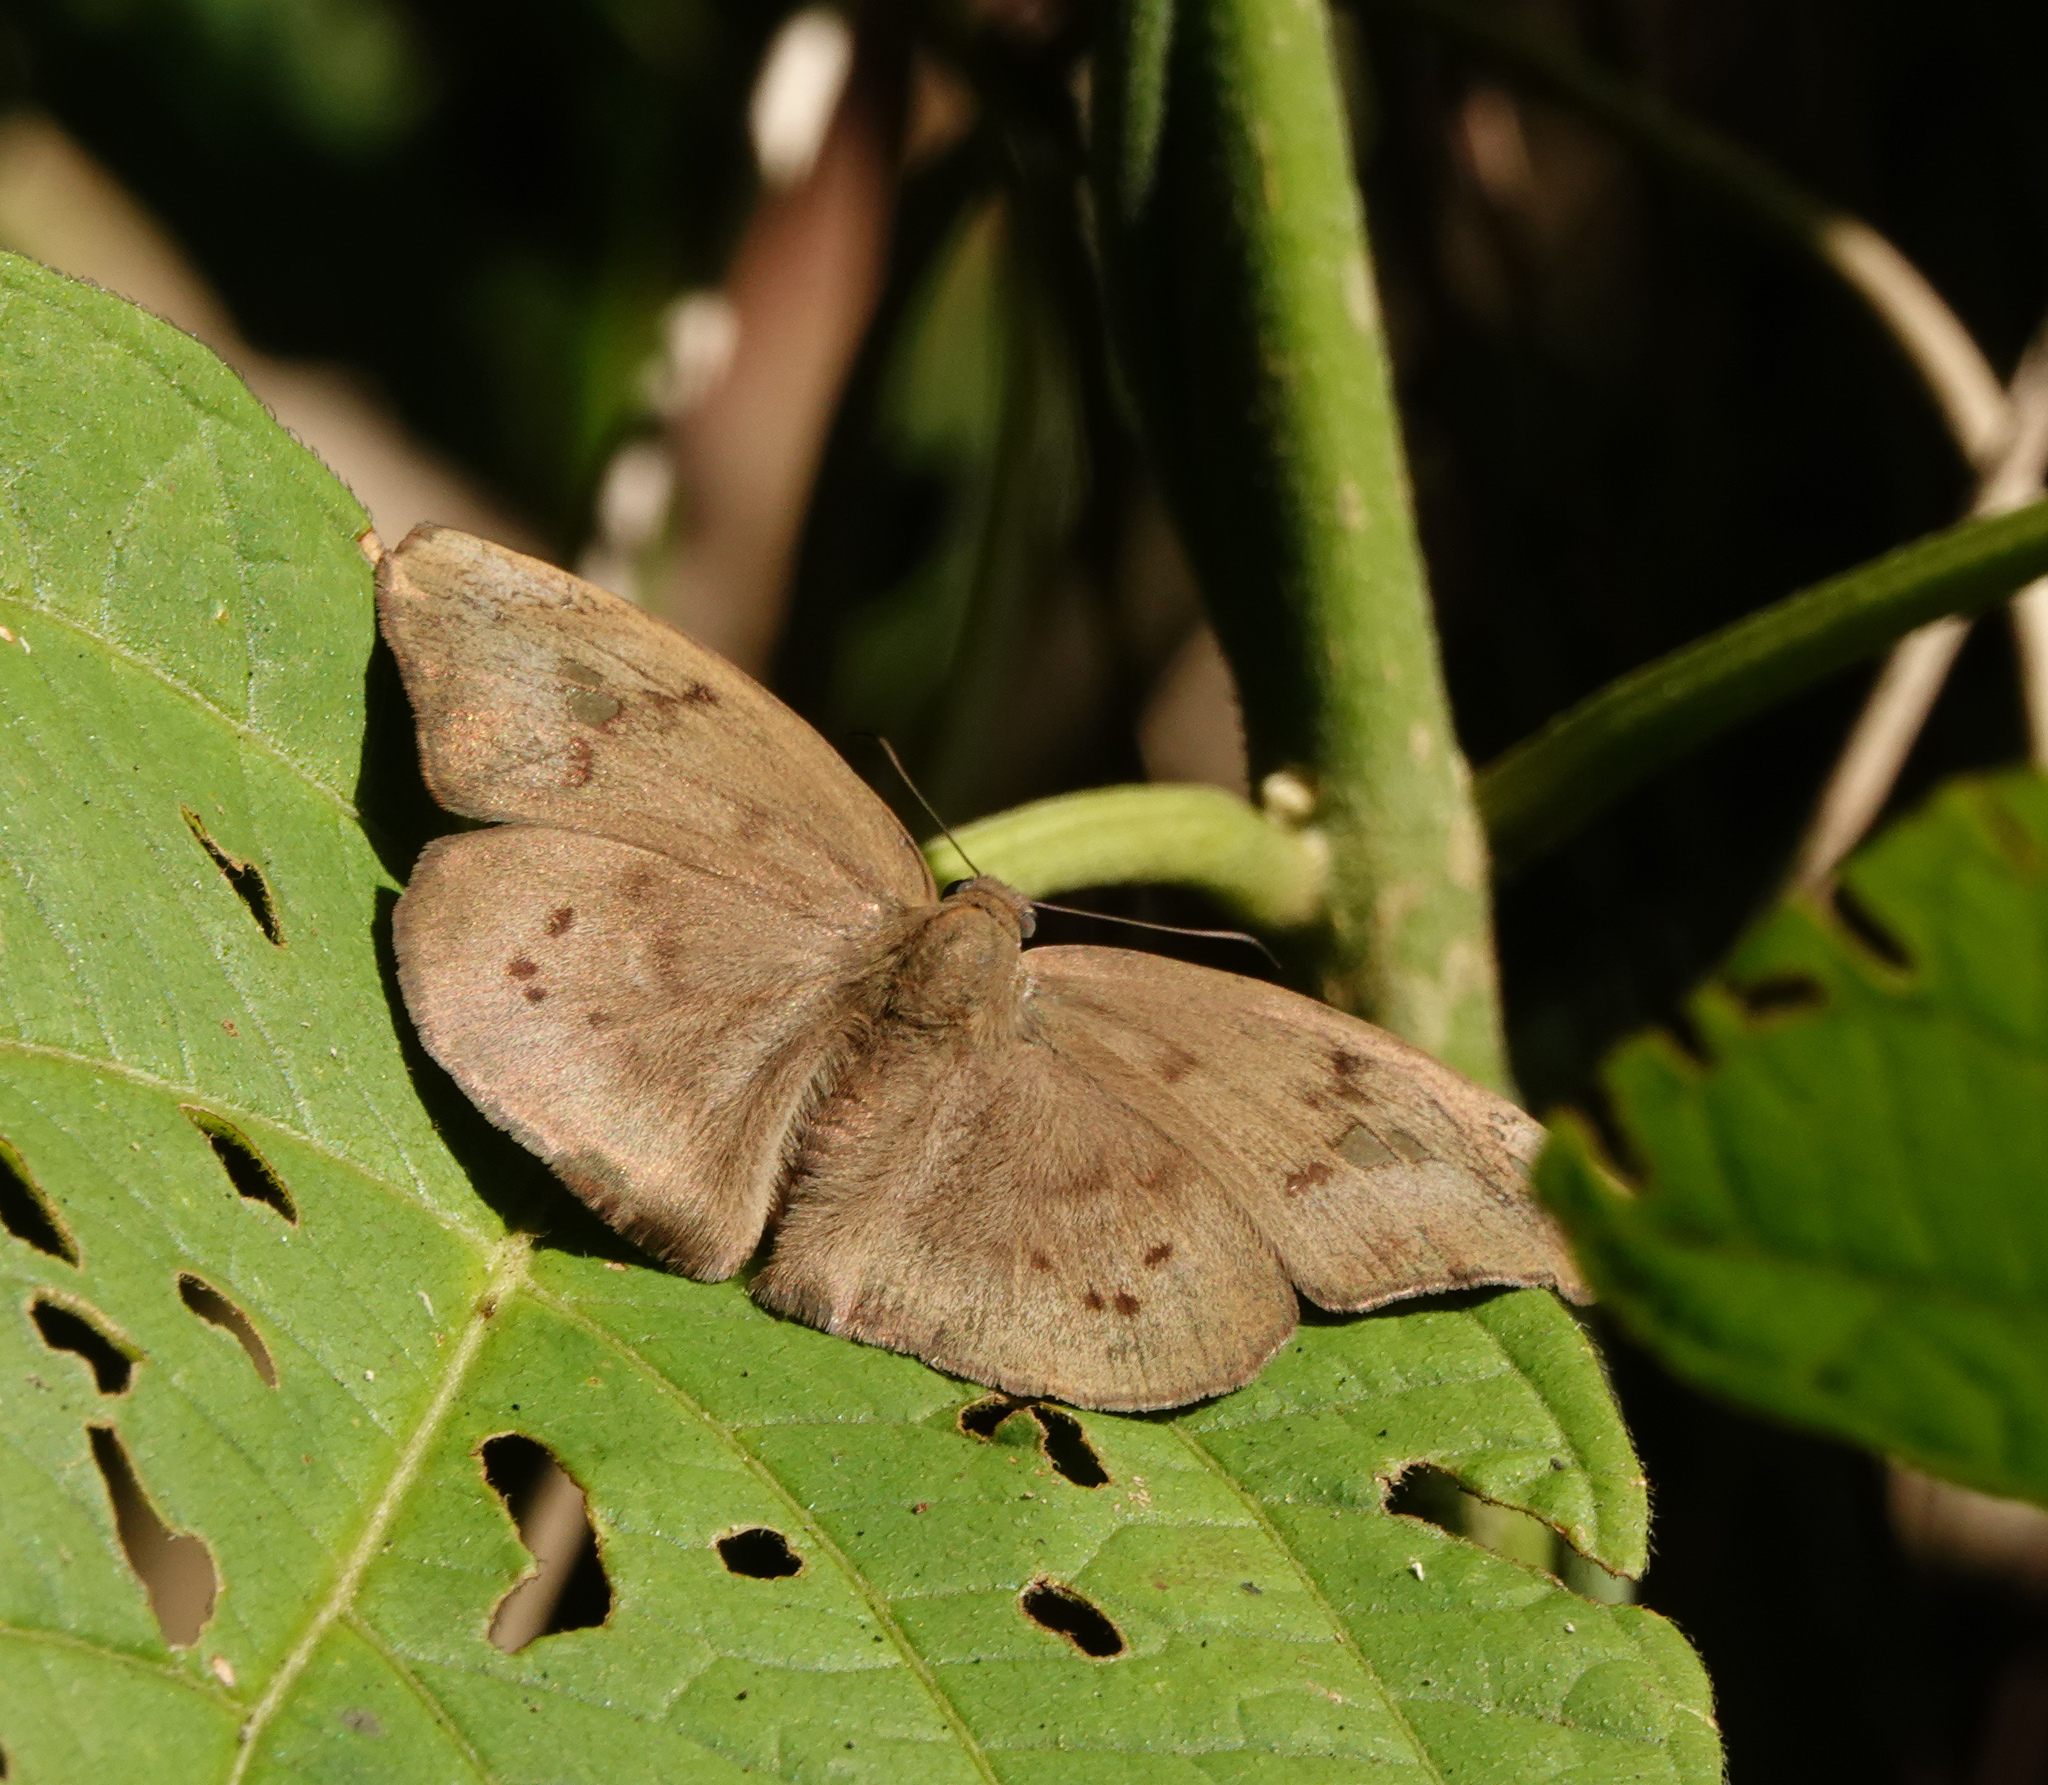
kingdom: Animalia
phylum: Arthropoda
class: Insecta
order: Lepidoptera
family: Hesperiidae
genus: Tagiades
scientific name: Tagiades japetus
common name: Pied flat
